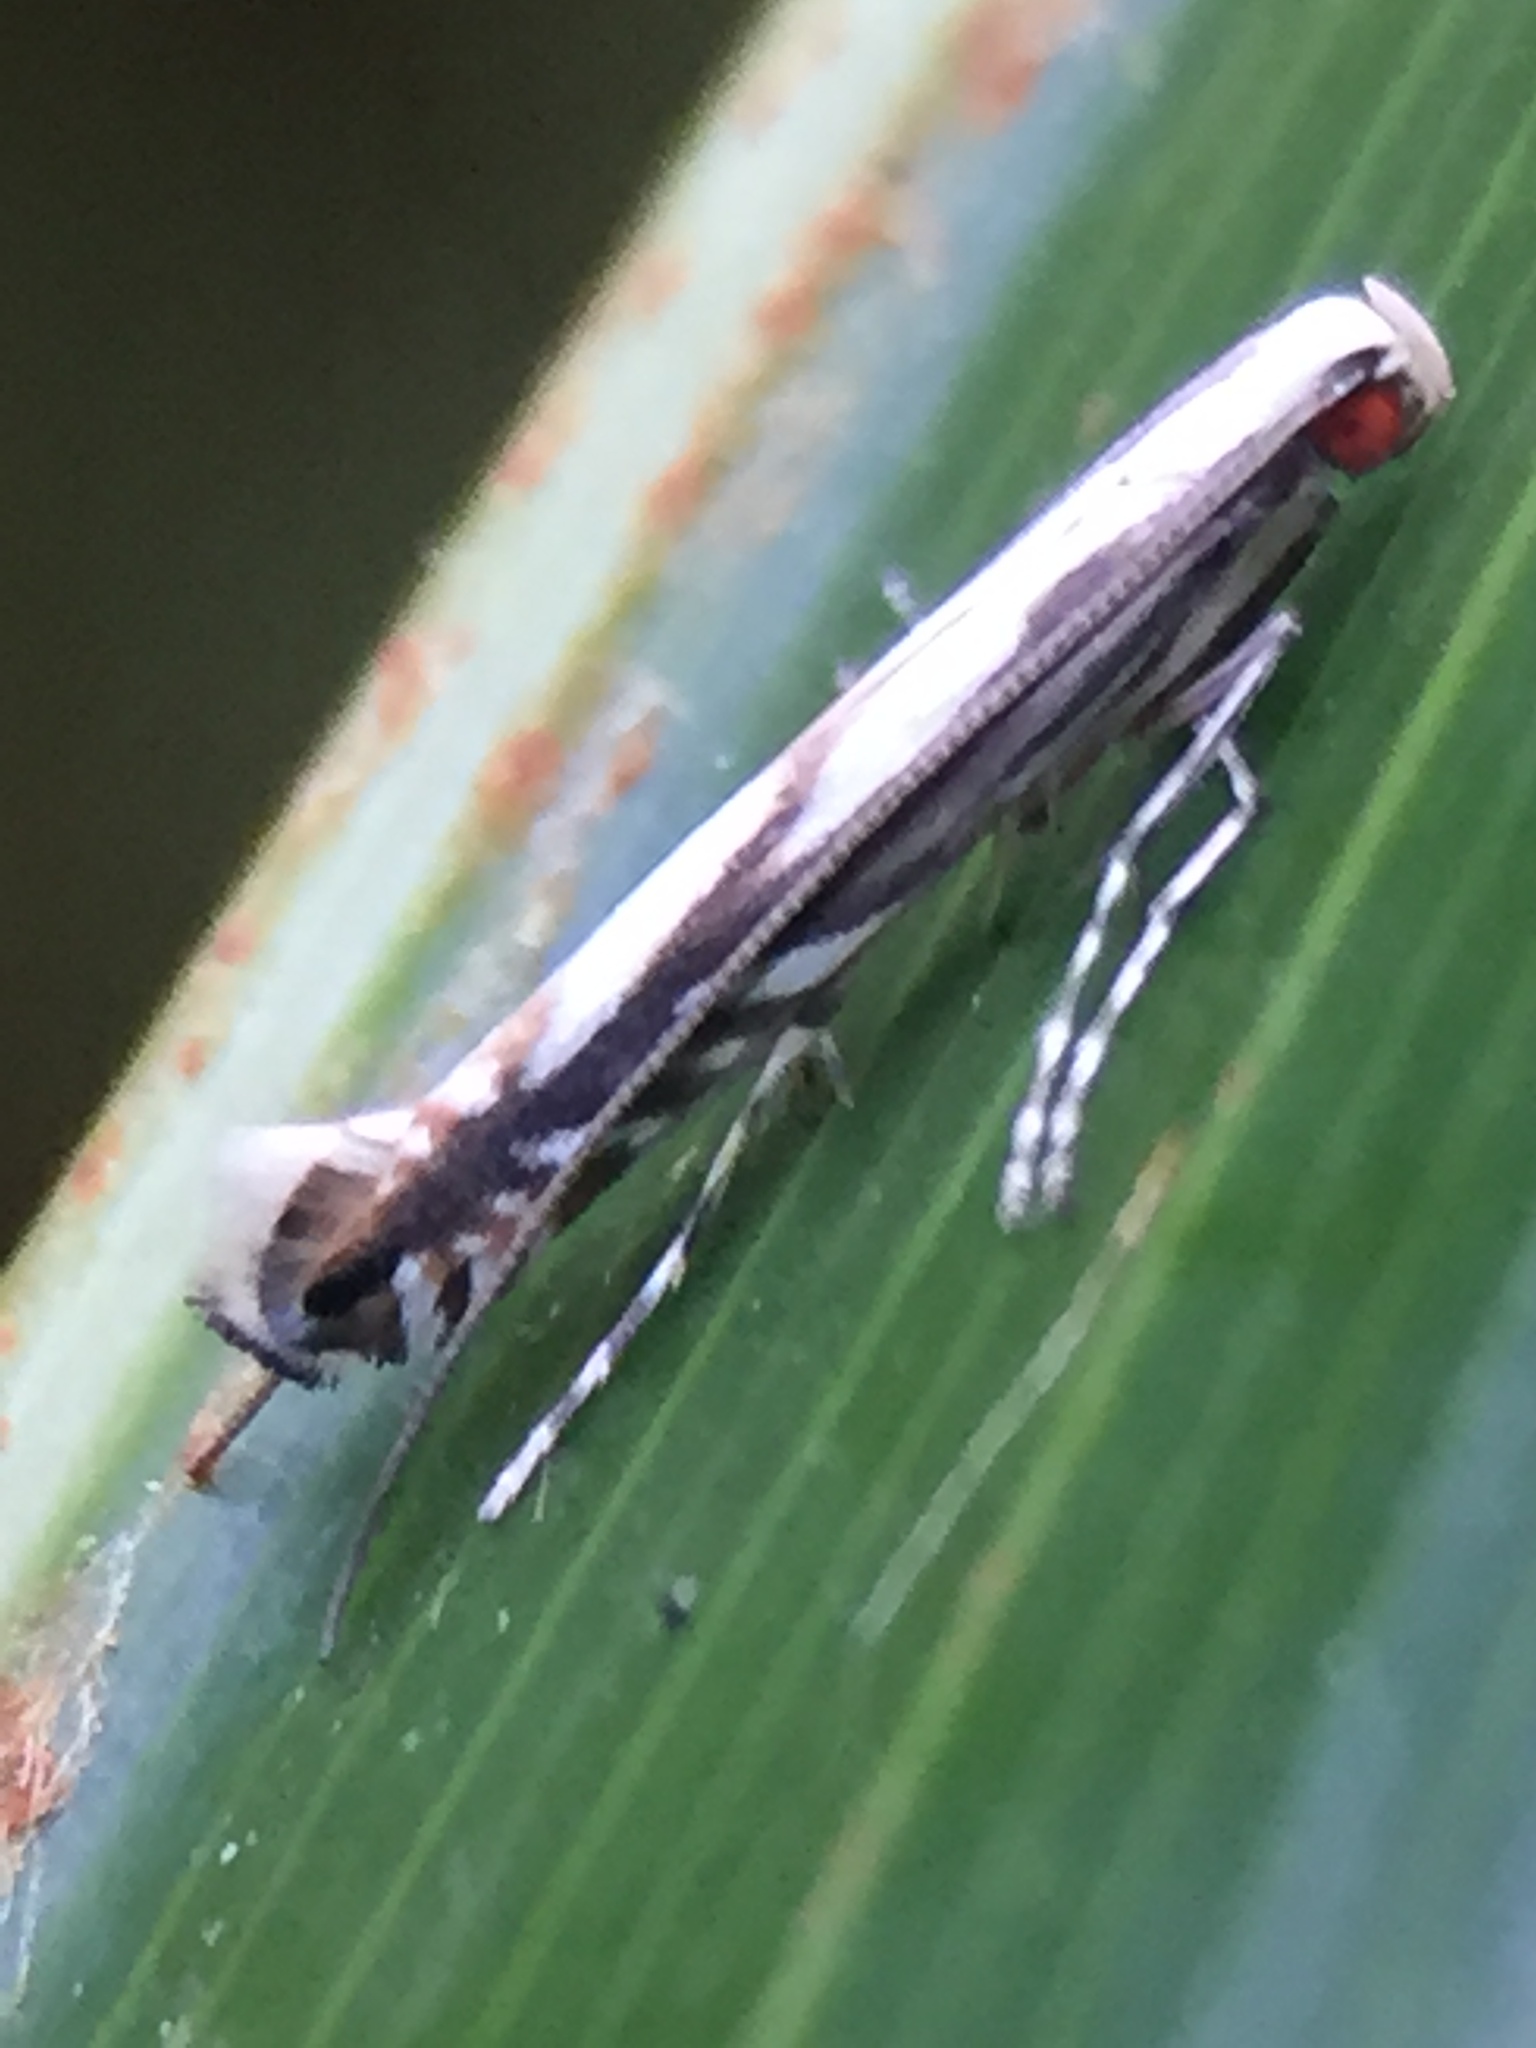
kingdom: Animalia
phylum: Arthropoda
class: Insecta
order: Lepidoptera
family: Gracillariidae
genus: Acrocercops
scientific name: Acrocercops leucotoma
